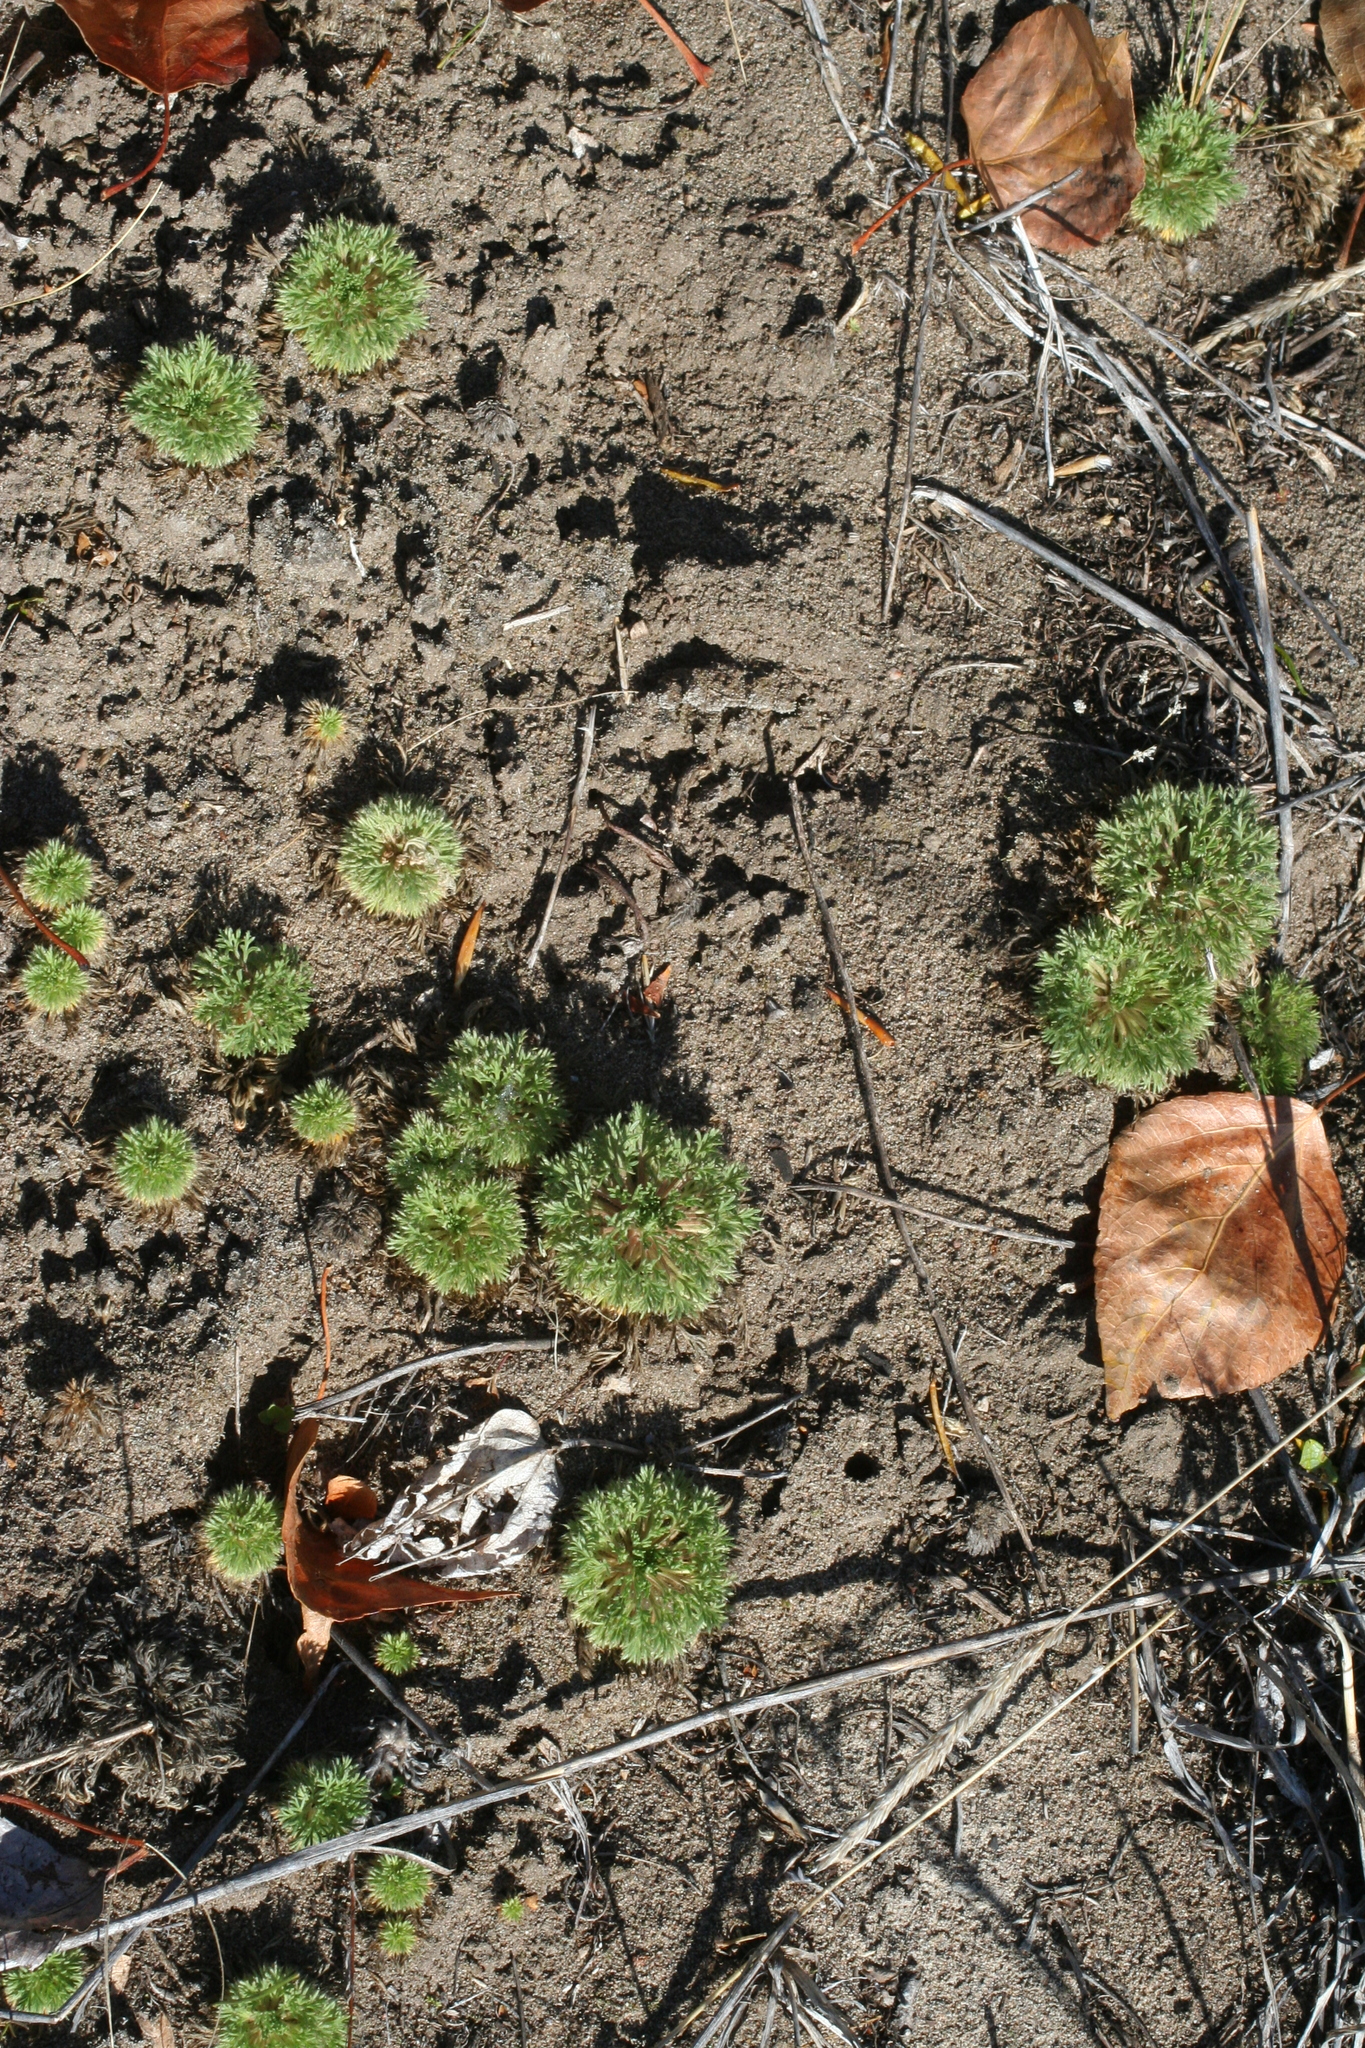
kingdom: Plantae
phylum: Tracheophyta
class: Magnoliopsida
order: Rosales
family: Rosaceae
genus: Chamaerhodos
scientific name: Chamaerhodos erecta
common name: American chamaerhodos
